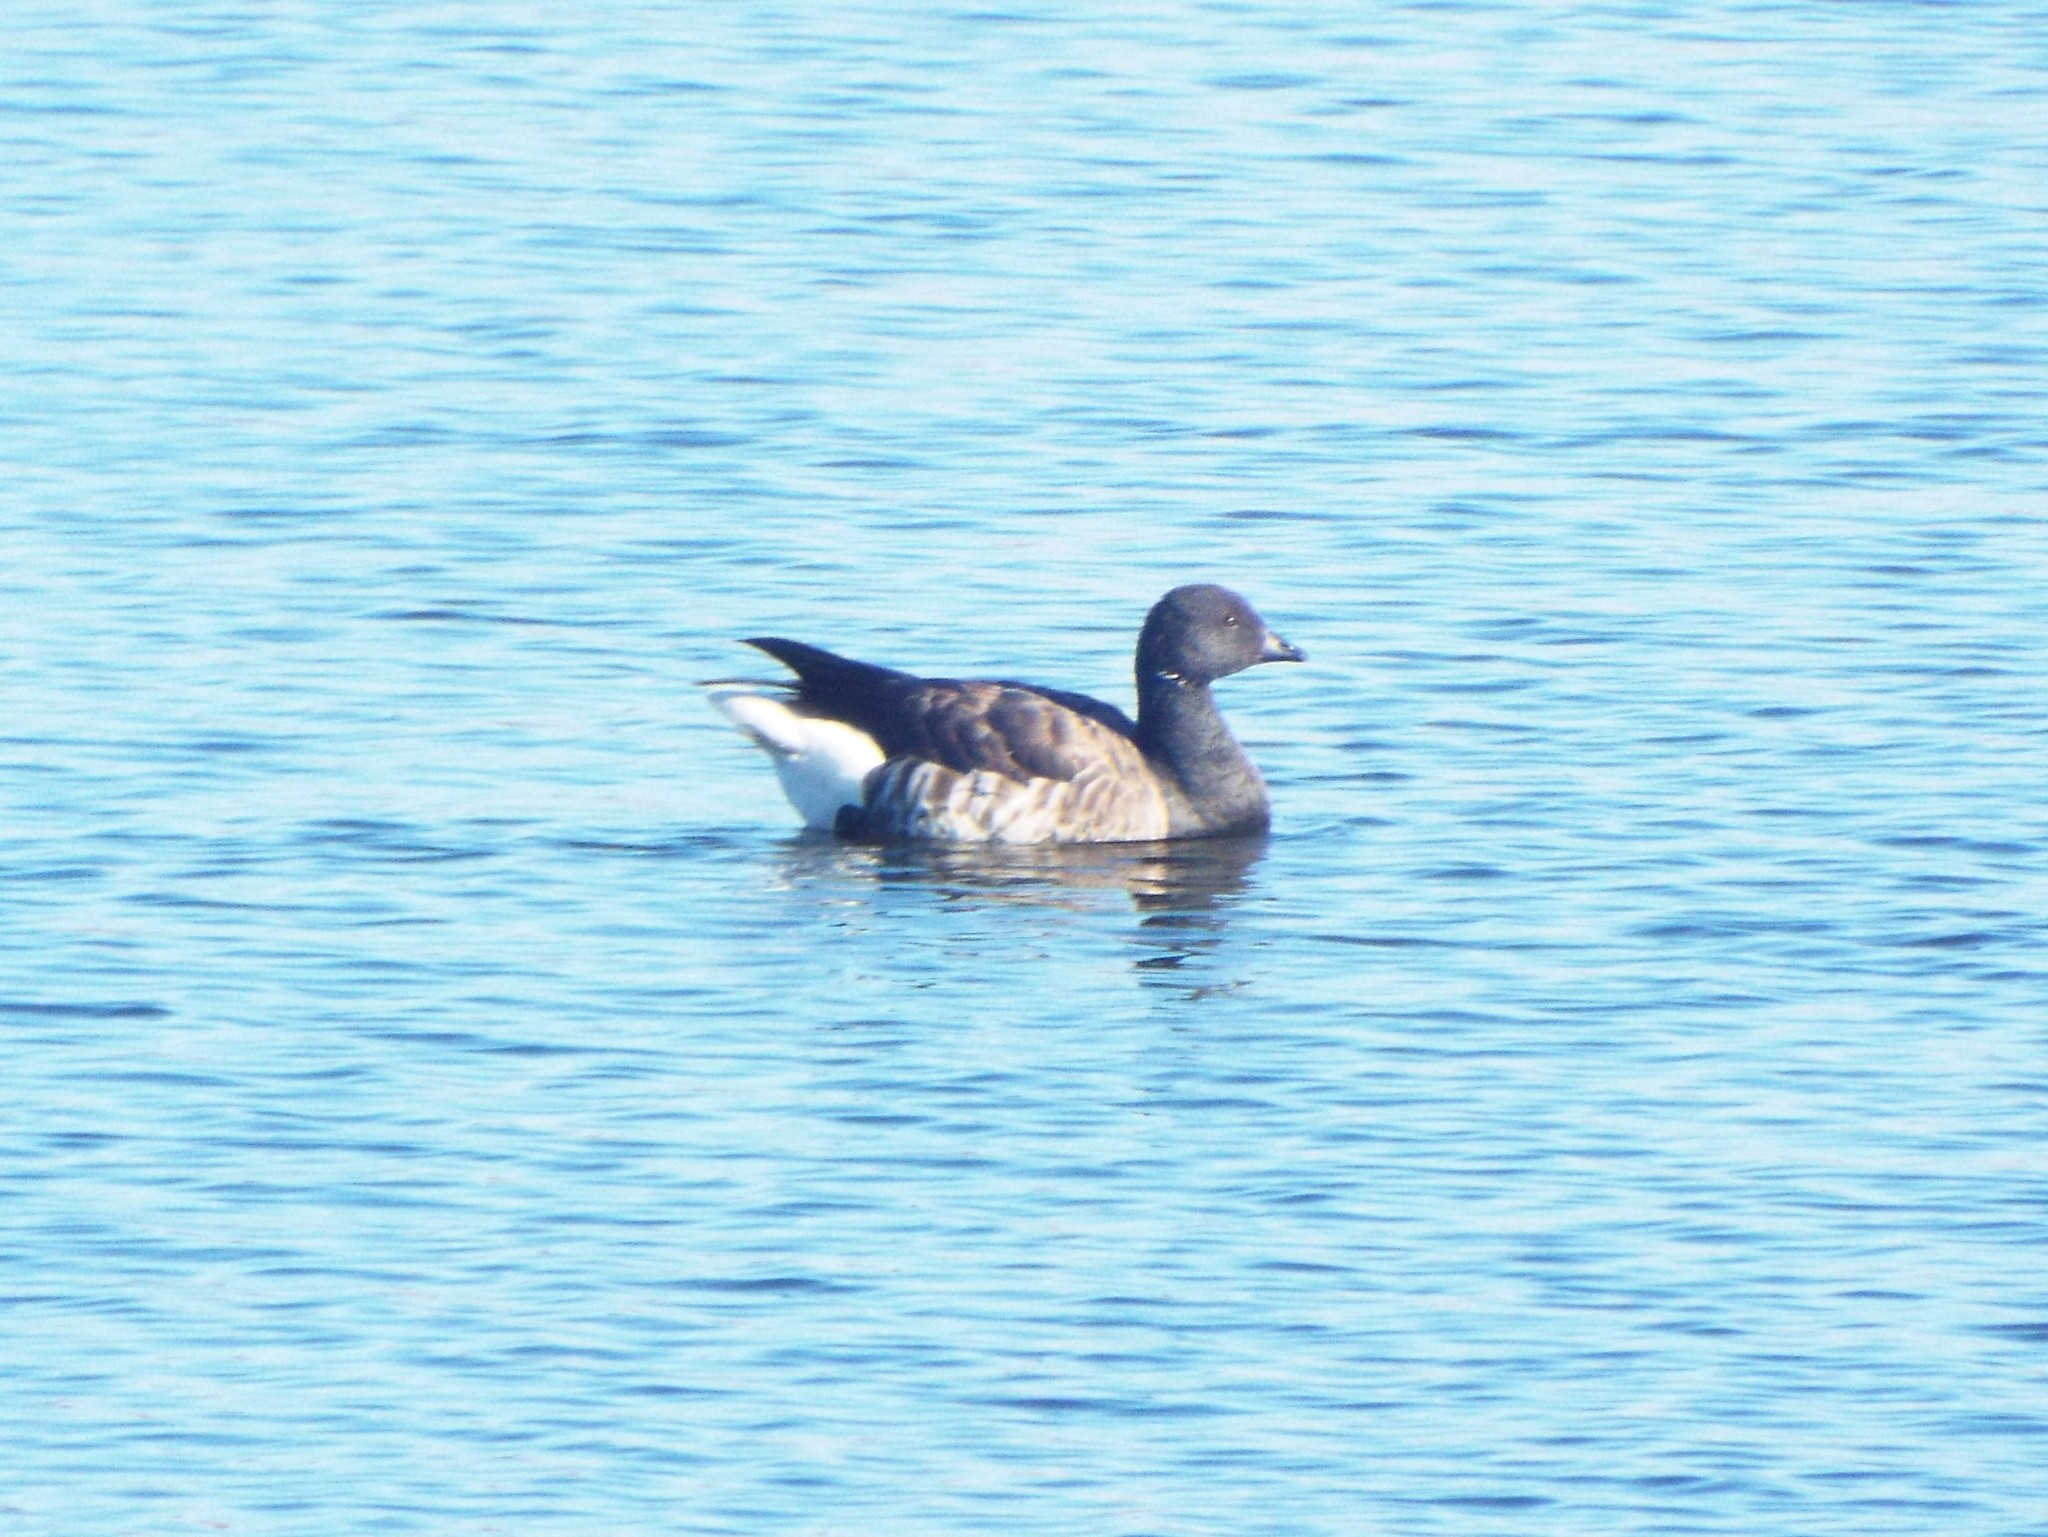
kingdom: Animalia
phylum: Chordata
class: Aves
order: Anseriformes
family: Anatidae
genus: Branta
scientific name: Branta bernicla
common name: Brant goose
